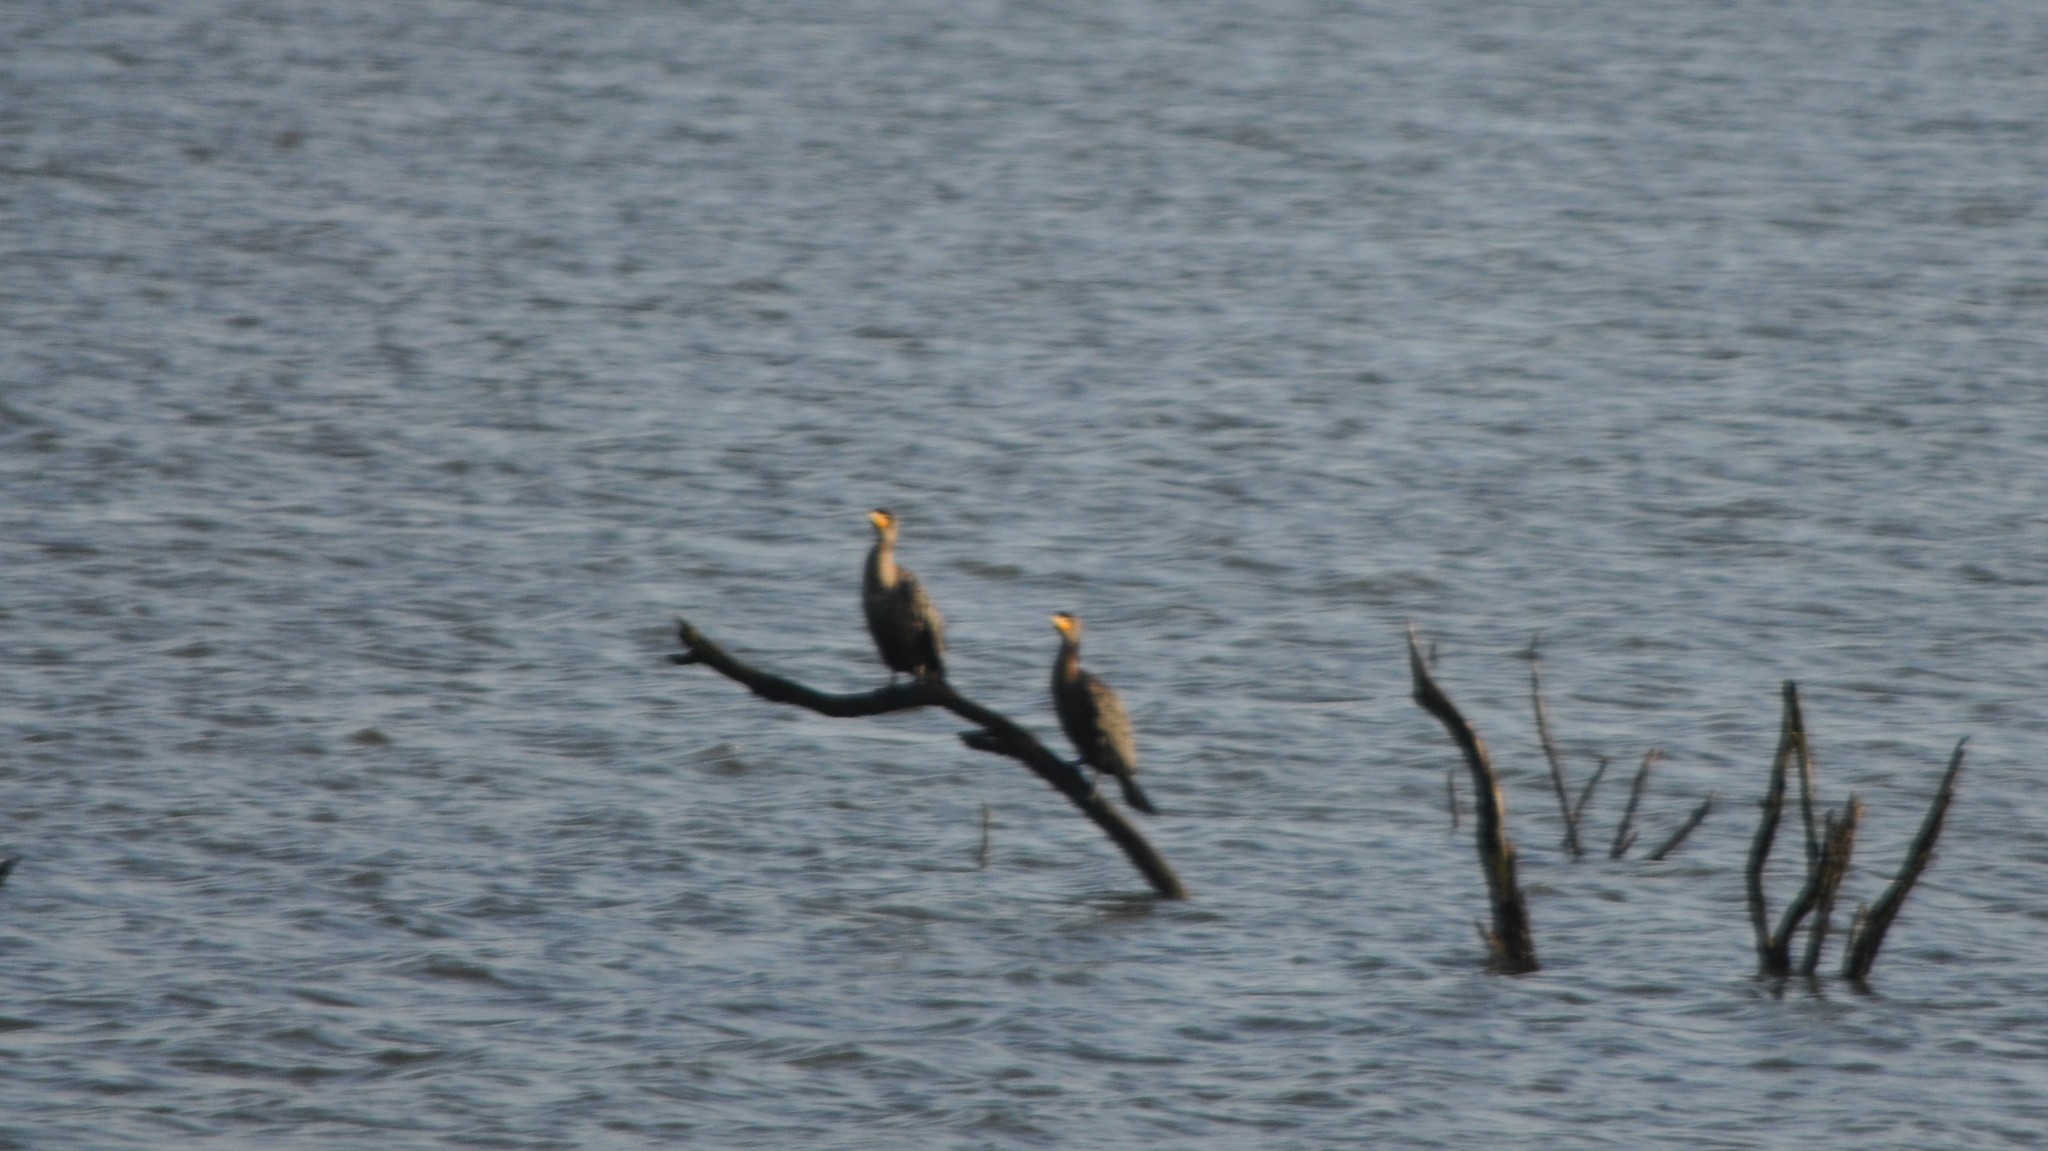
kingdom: Animalia
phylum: Chordata
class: Aves
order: Suliformes
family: Phalacrocoracidae
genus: Phalacrocorax
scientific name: Phalacrocorax auritus
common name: Double-crested cormorant
